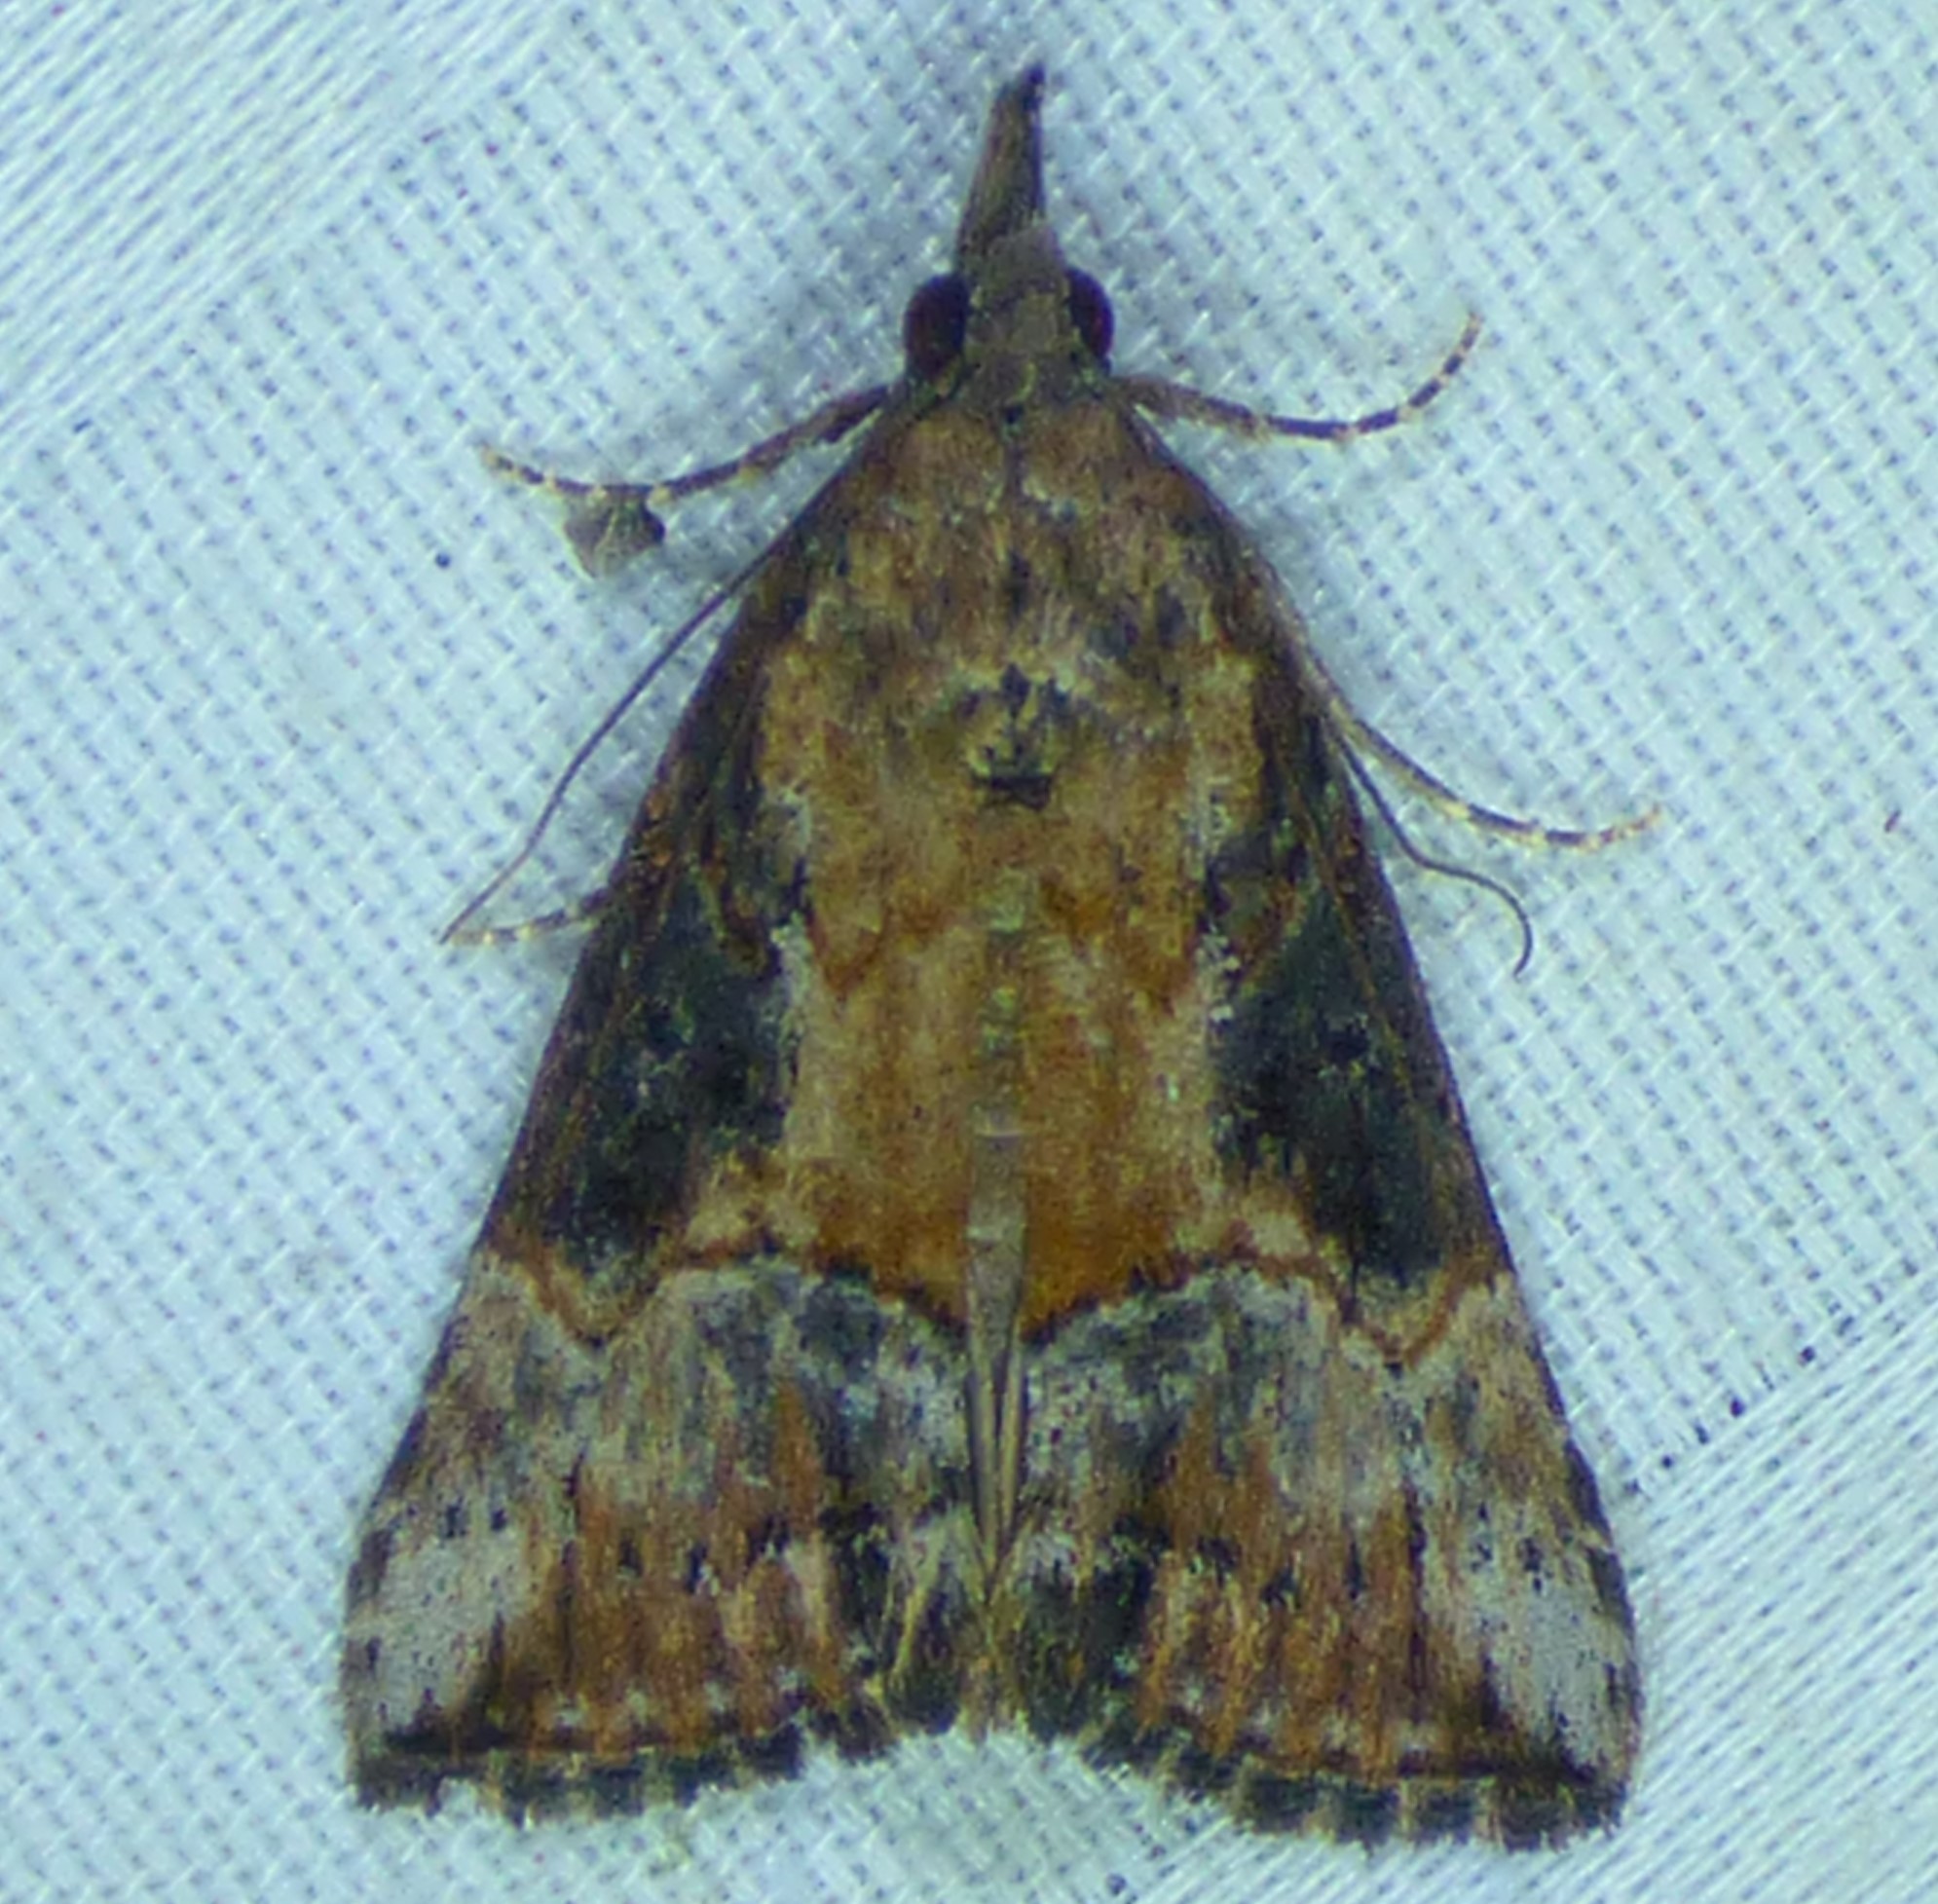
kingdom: Animalia
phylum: Arthropoda
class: Insecta
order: Lepidoptera
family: Erebidae
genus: Hypena
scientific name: Hypena scabra
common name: Green cloverworm
